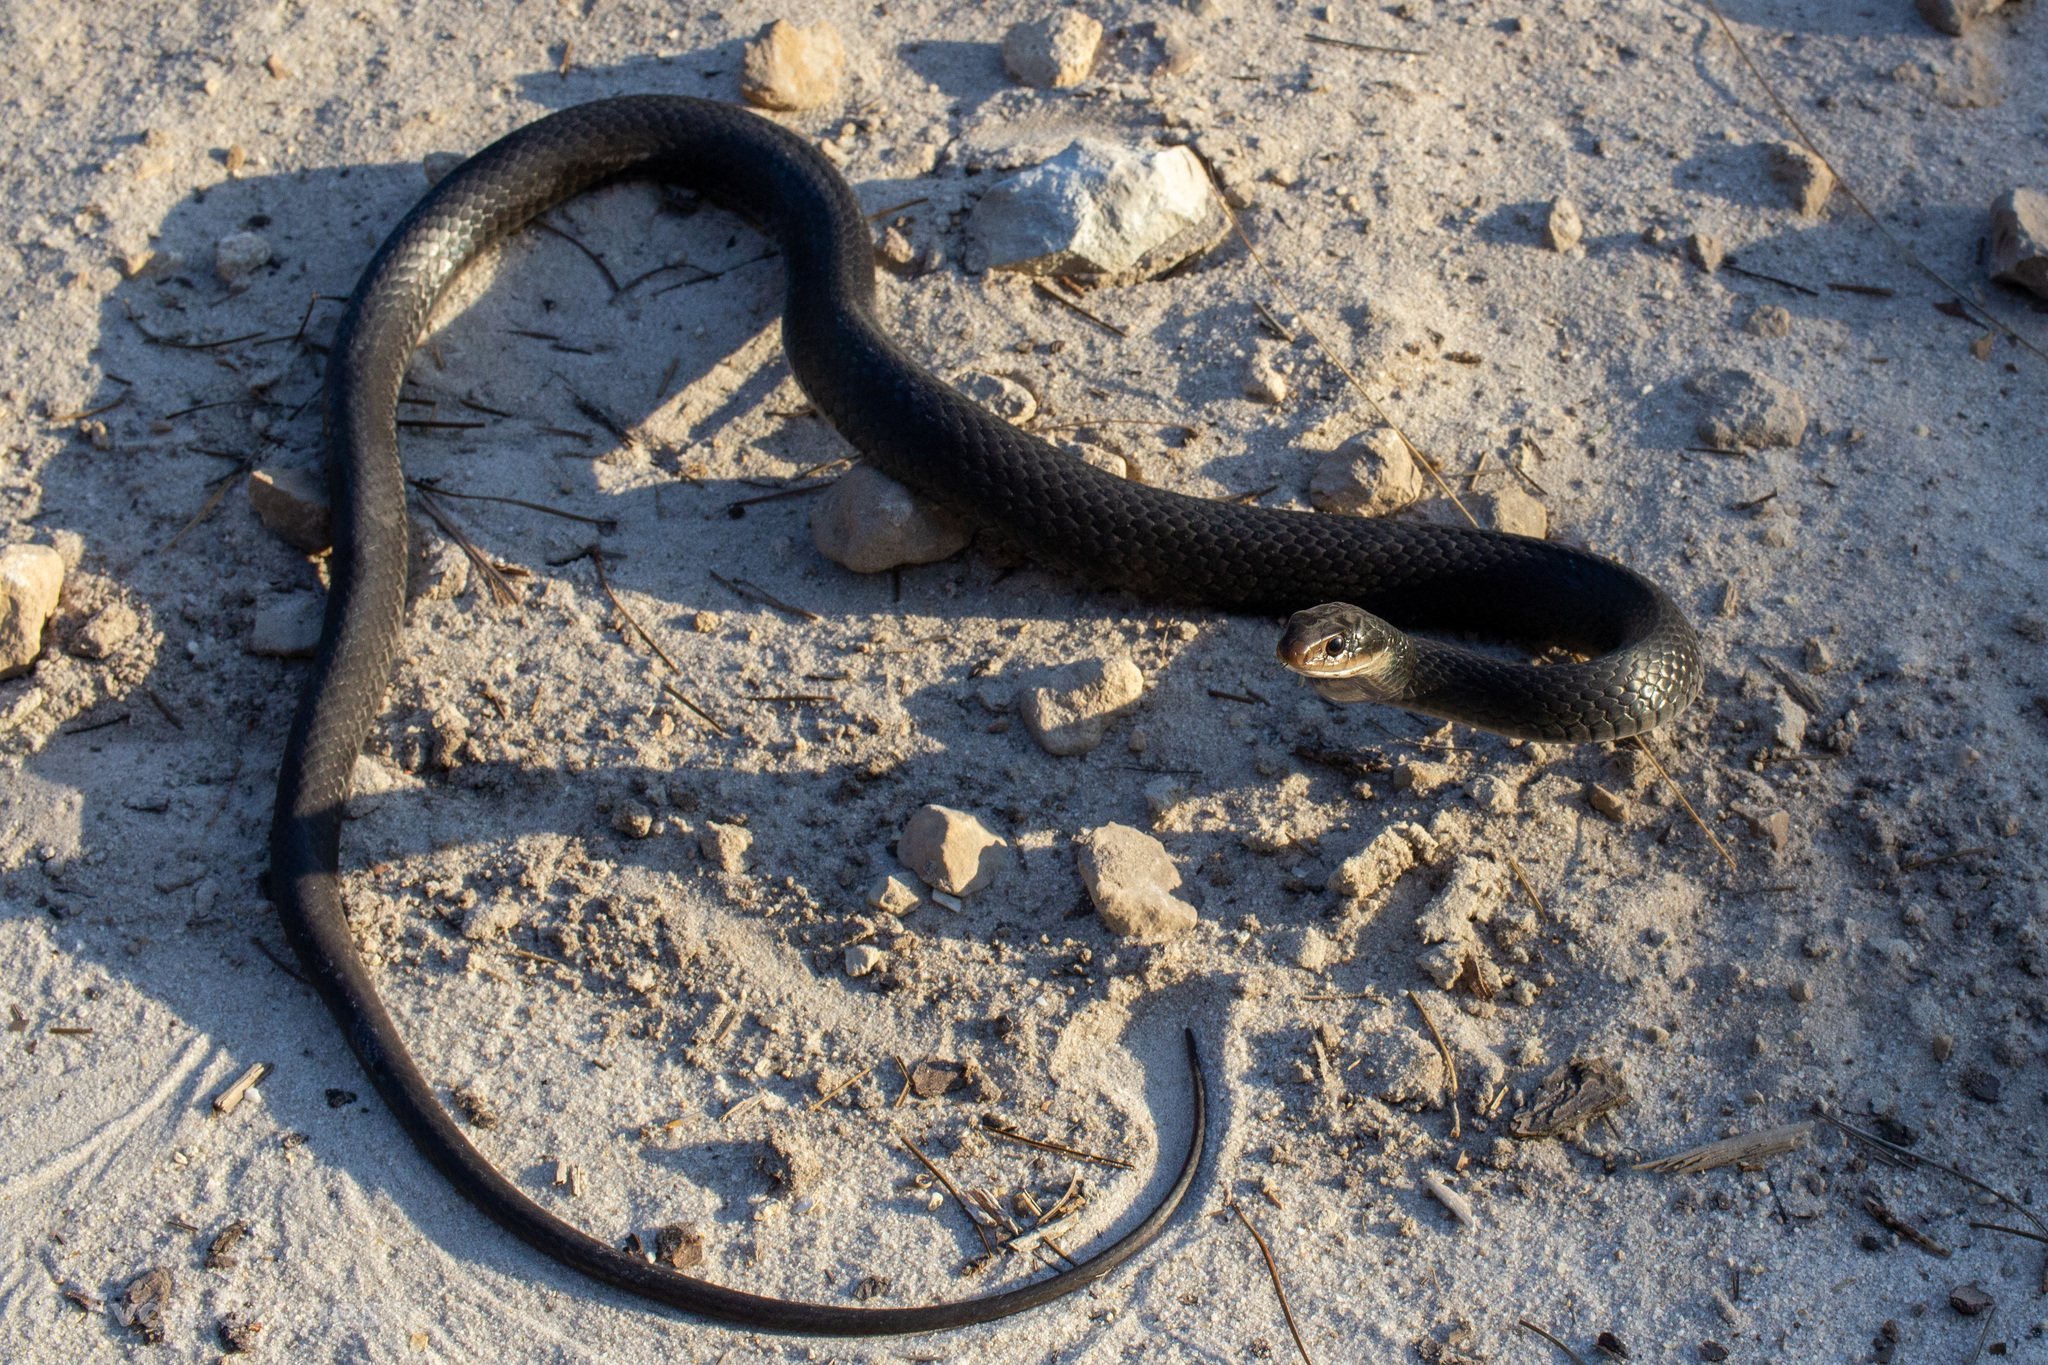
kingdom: Animalia
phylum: Chordata
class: Squamata
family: Colubridae
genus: Coluber
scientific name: Coluber constrictor
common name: Eastern racer
